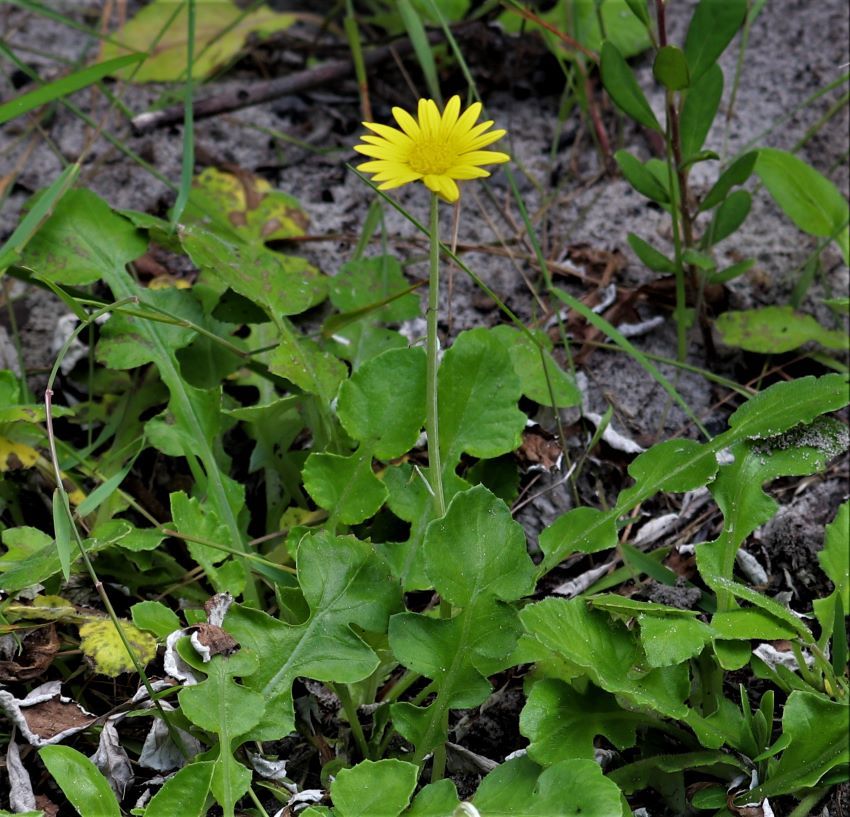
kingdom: Plantae
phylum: Tracheophyta
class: Magnoliopsida
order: Asterales
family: Asteraceae
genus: Arctotheca
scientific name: Arctotheca prostrata
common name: Capeweed
